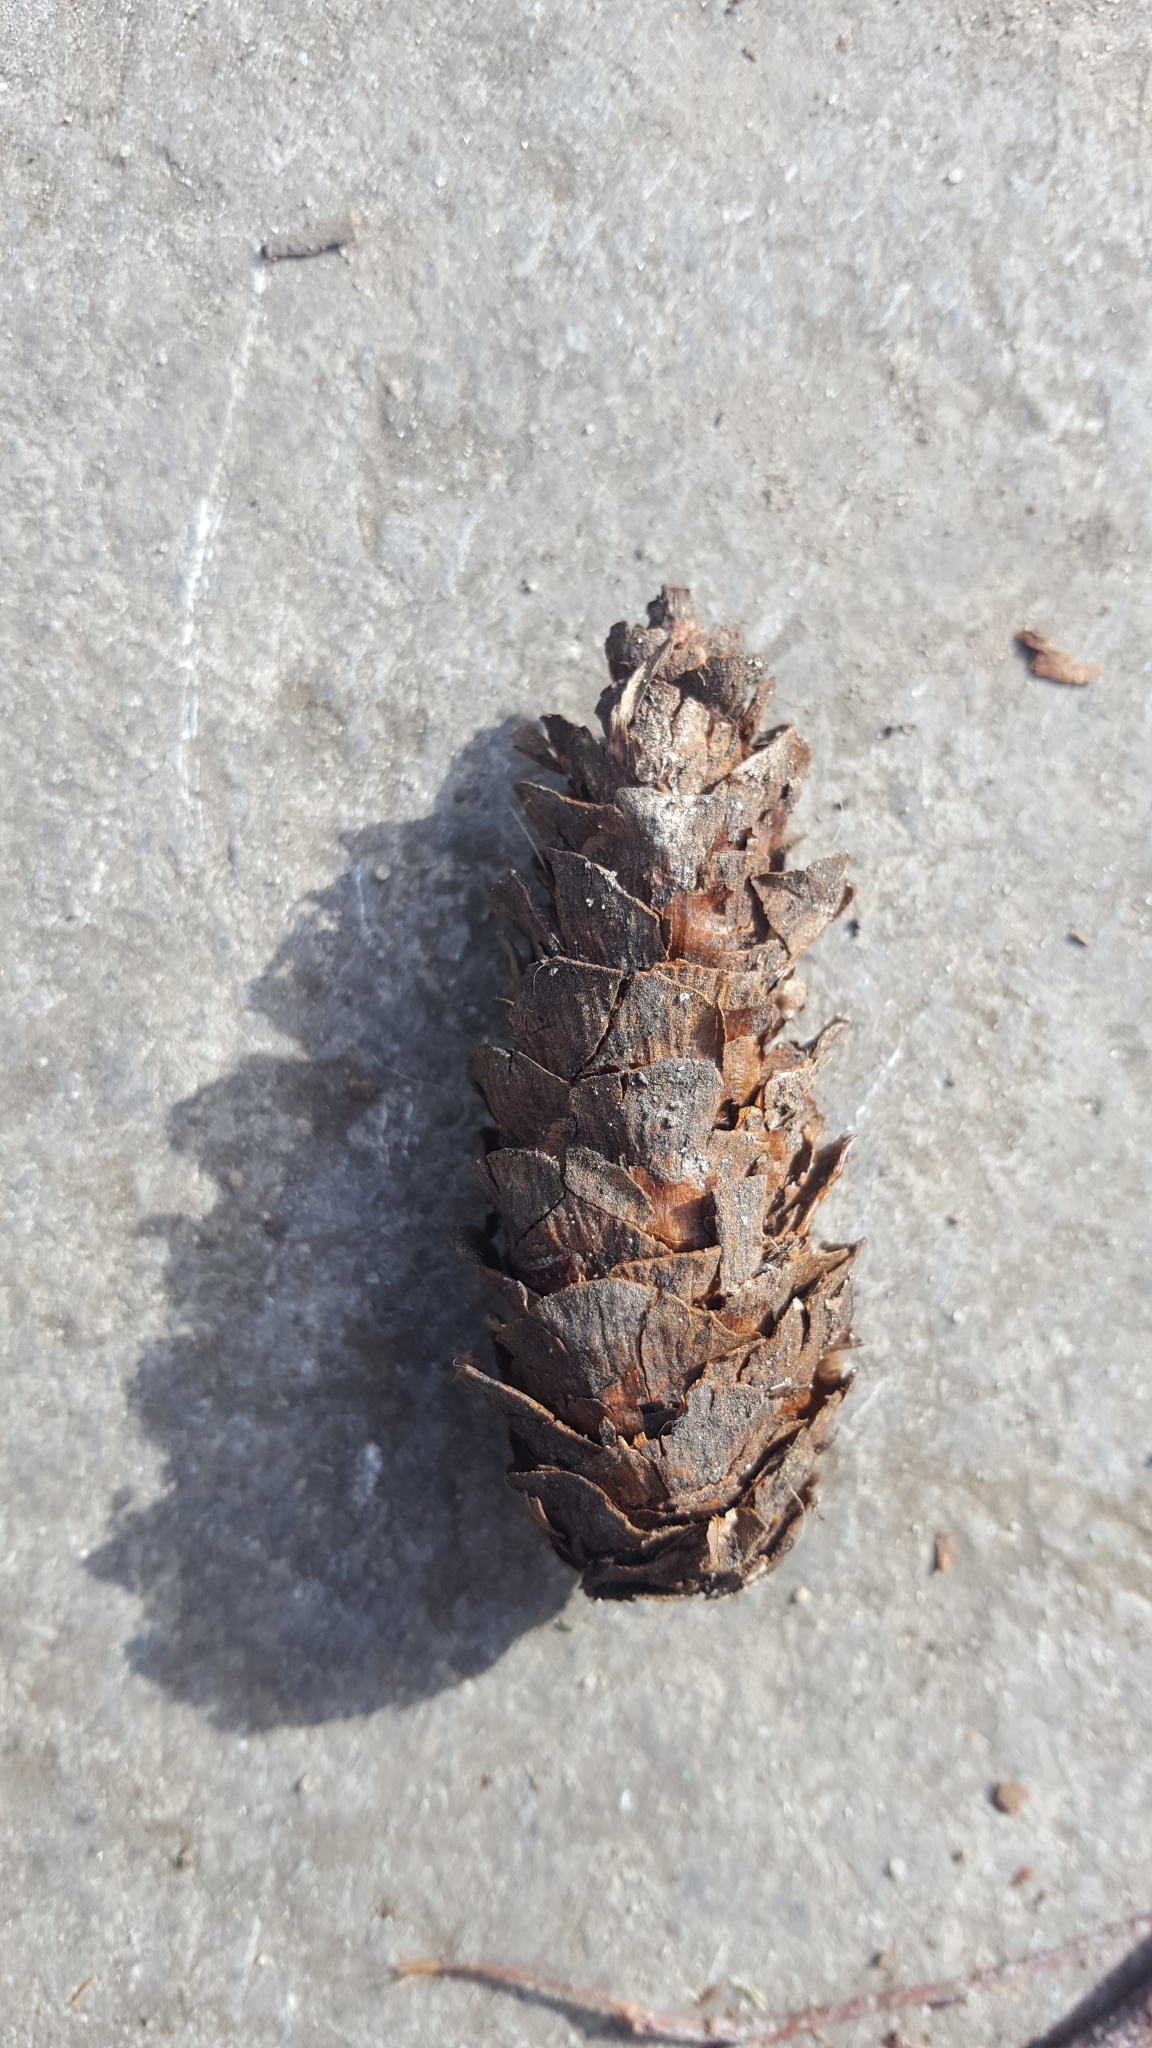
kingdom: Plantae
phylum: Tracheophyta
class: Pinopsida
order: Pinales
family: Pinaceae
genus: Larix
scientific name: Larix decidua
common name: European larch
